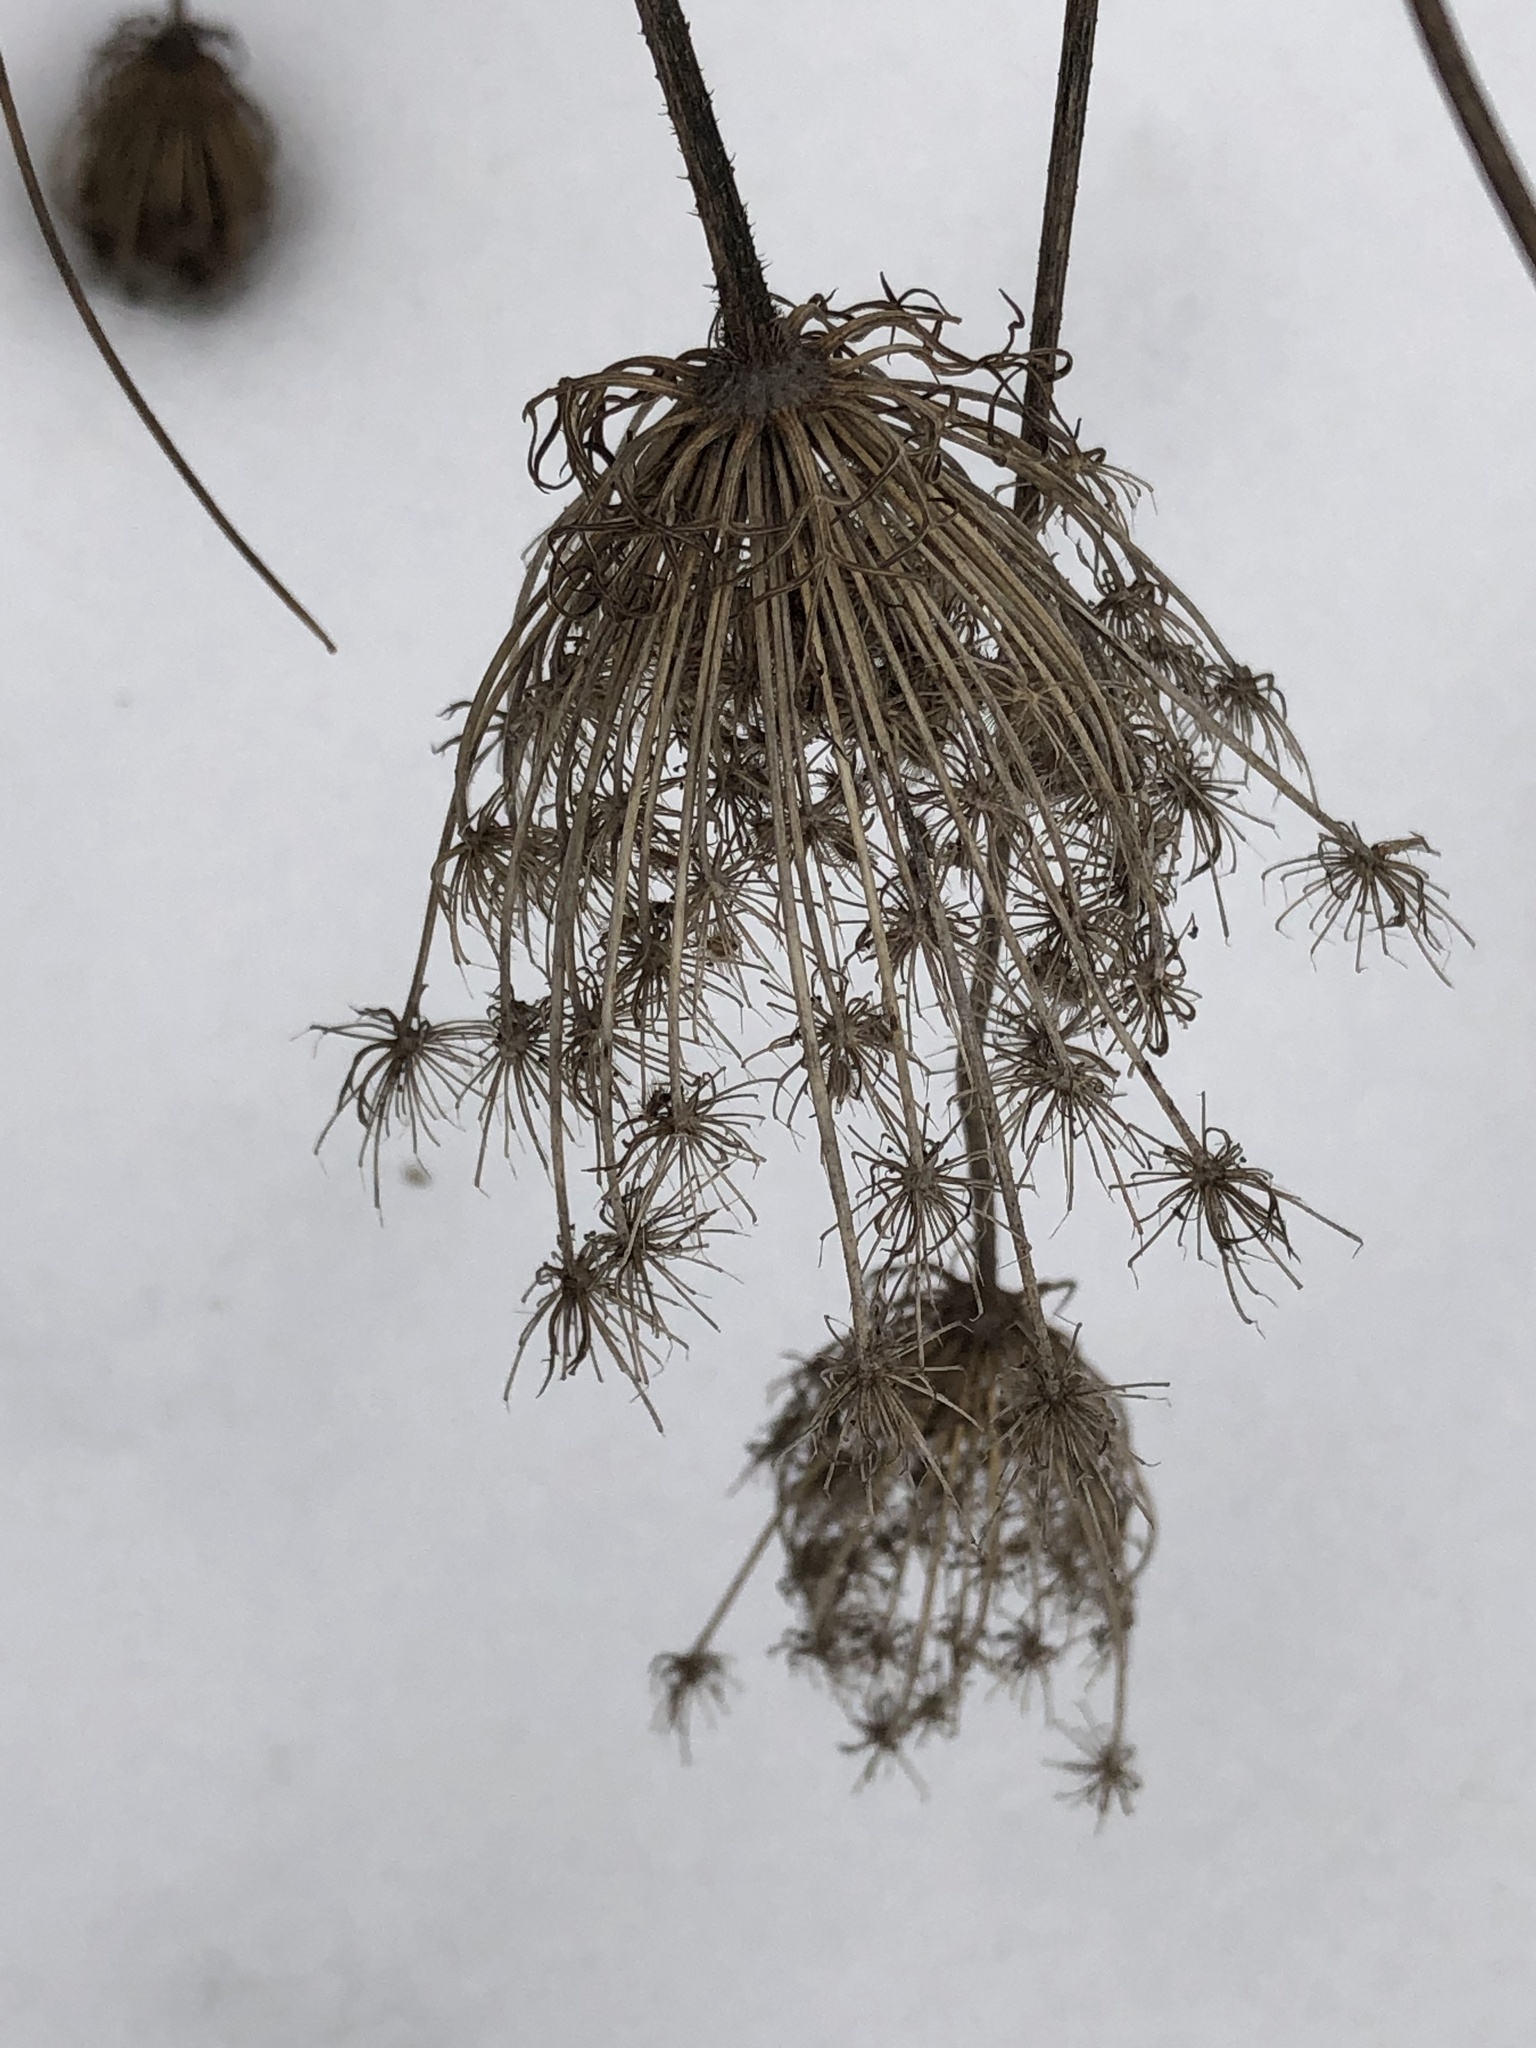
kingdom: Plantae
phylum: Tracheophyta
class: Magnoliopsida
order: Apiales
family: Apiaceae
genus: Daucus
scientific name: Daucus carota
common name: Wild carrot
